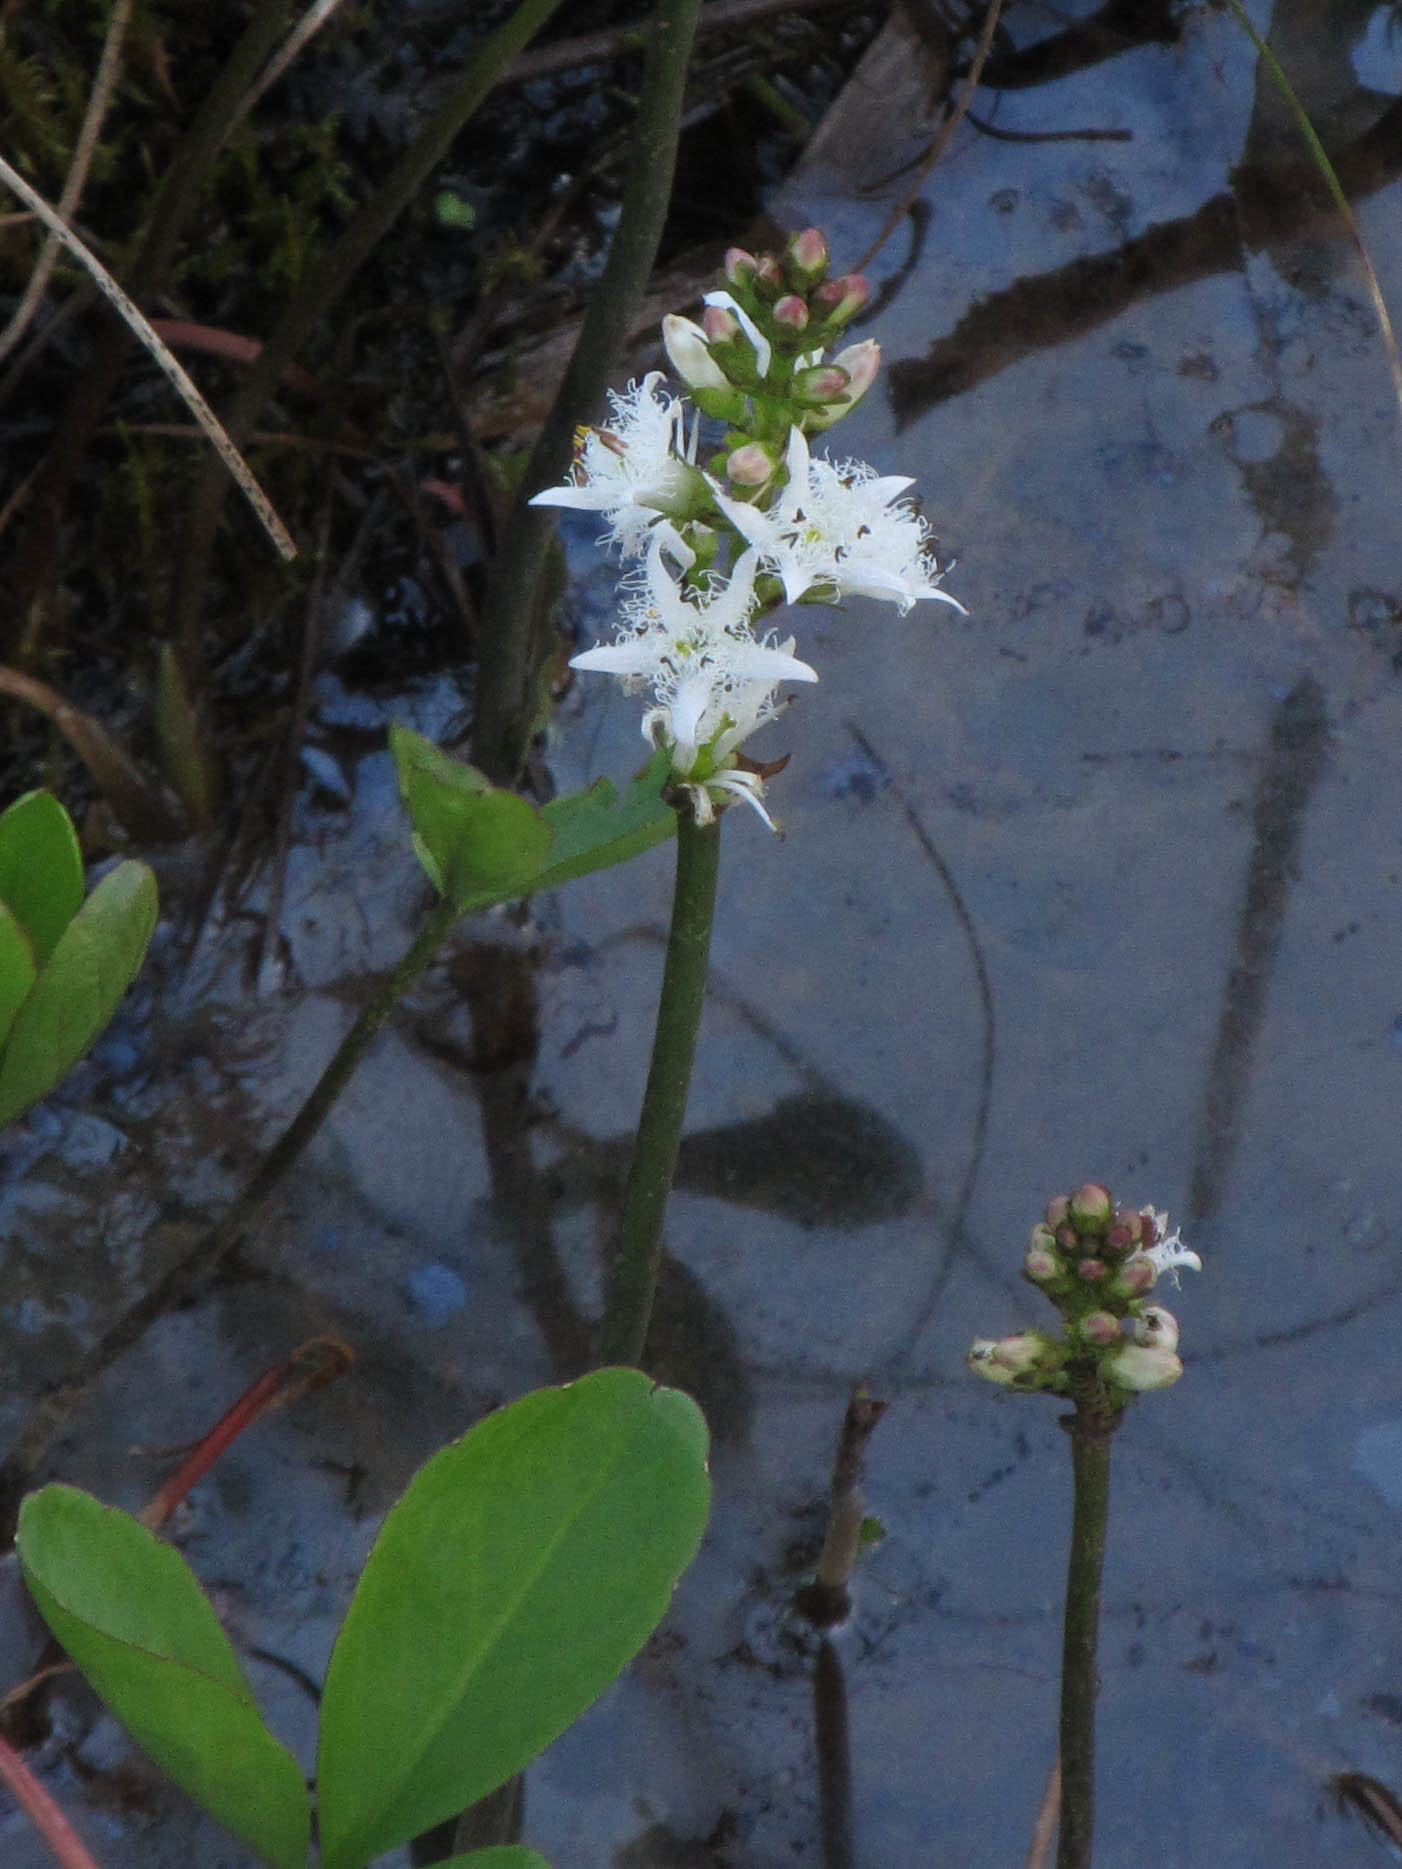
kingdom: Plantae
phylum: Tracheophyta
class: Magnoliopsida
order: Asterales
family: Menyanthaceae
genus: Menyanthes
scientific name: Menyanthes trifoliata
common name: Bogbean
